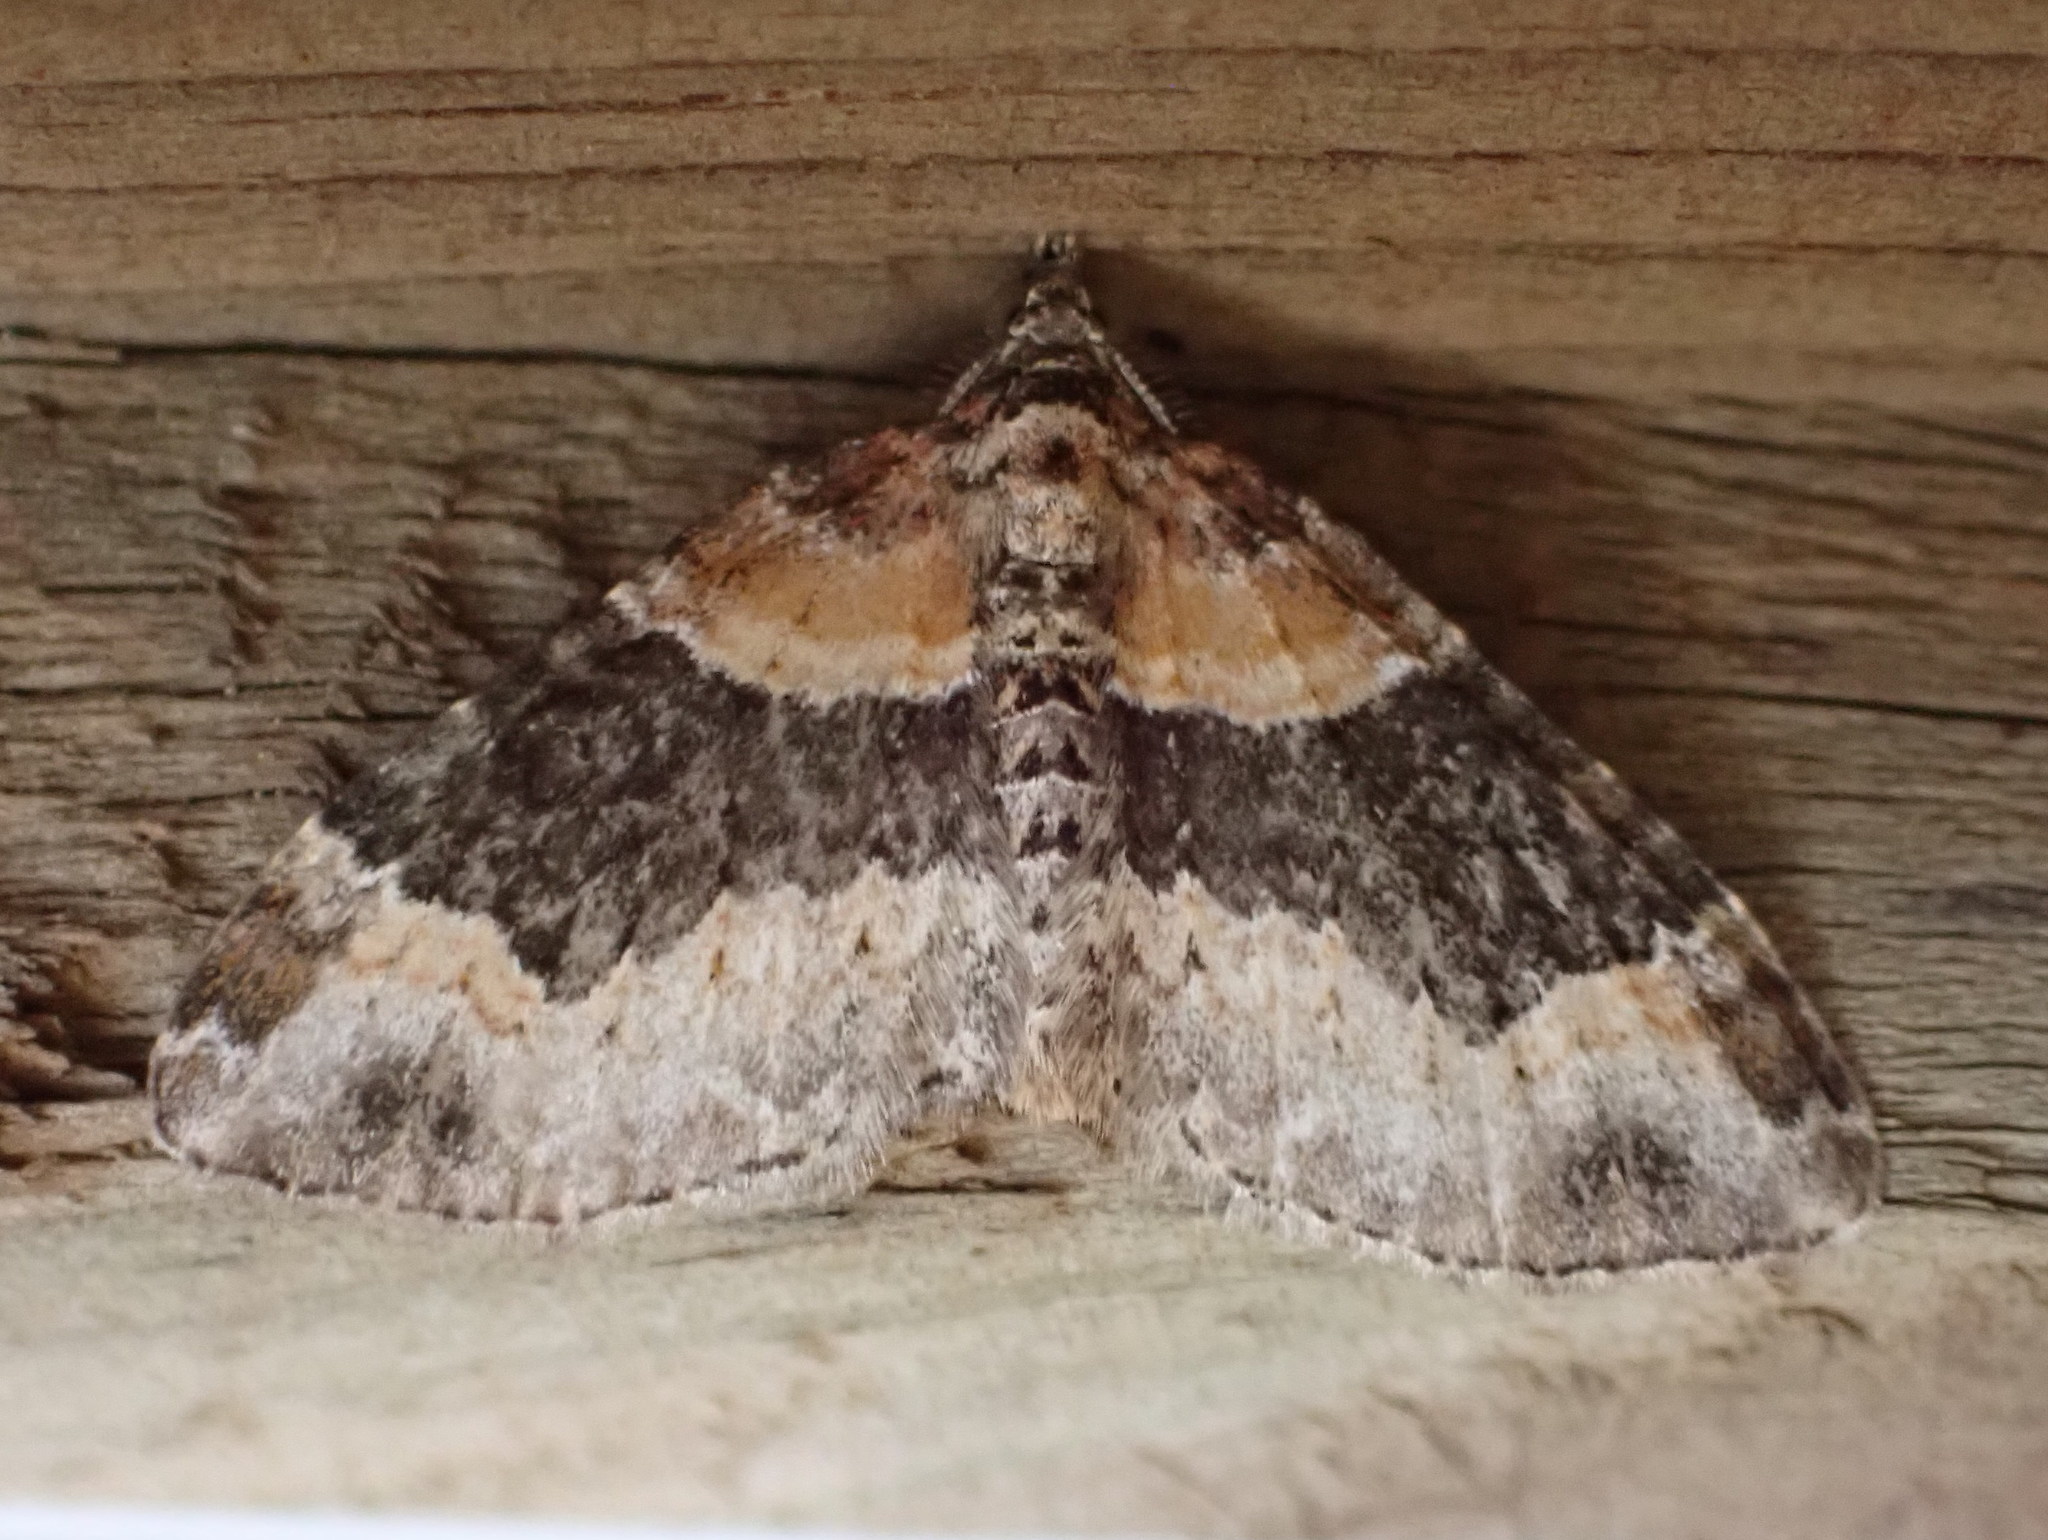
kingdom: Animalia
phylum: Arthropoda
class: Insecta
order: Lepidoptera
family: Geometridae
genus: Xanthorhoe
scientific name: Xanthorhoe ferrugata
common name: Dark-barred twin-spot carpet
